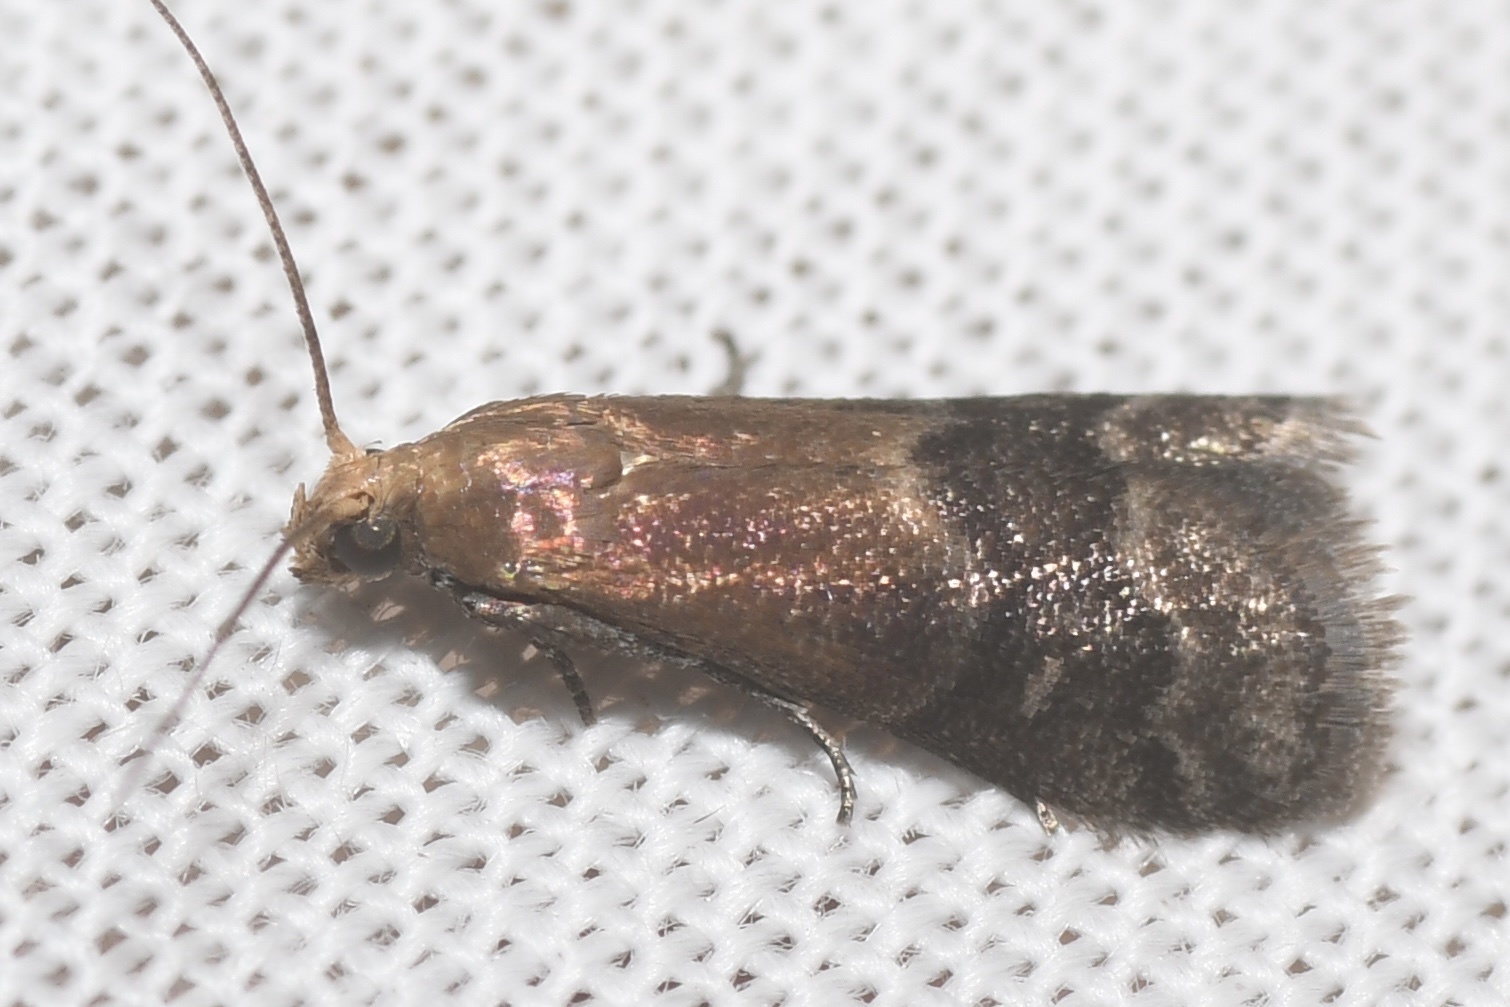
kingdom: Animalia
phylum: Arthropoda
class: Insecta
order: Lepidoptera
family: Pyralidae
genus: Eulogia
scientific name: Eulogia ochrifrontella
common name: Broad-banded eulogia moth
